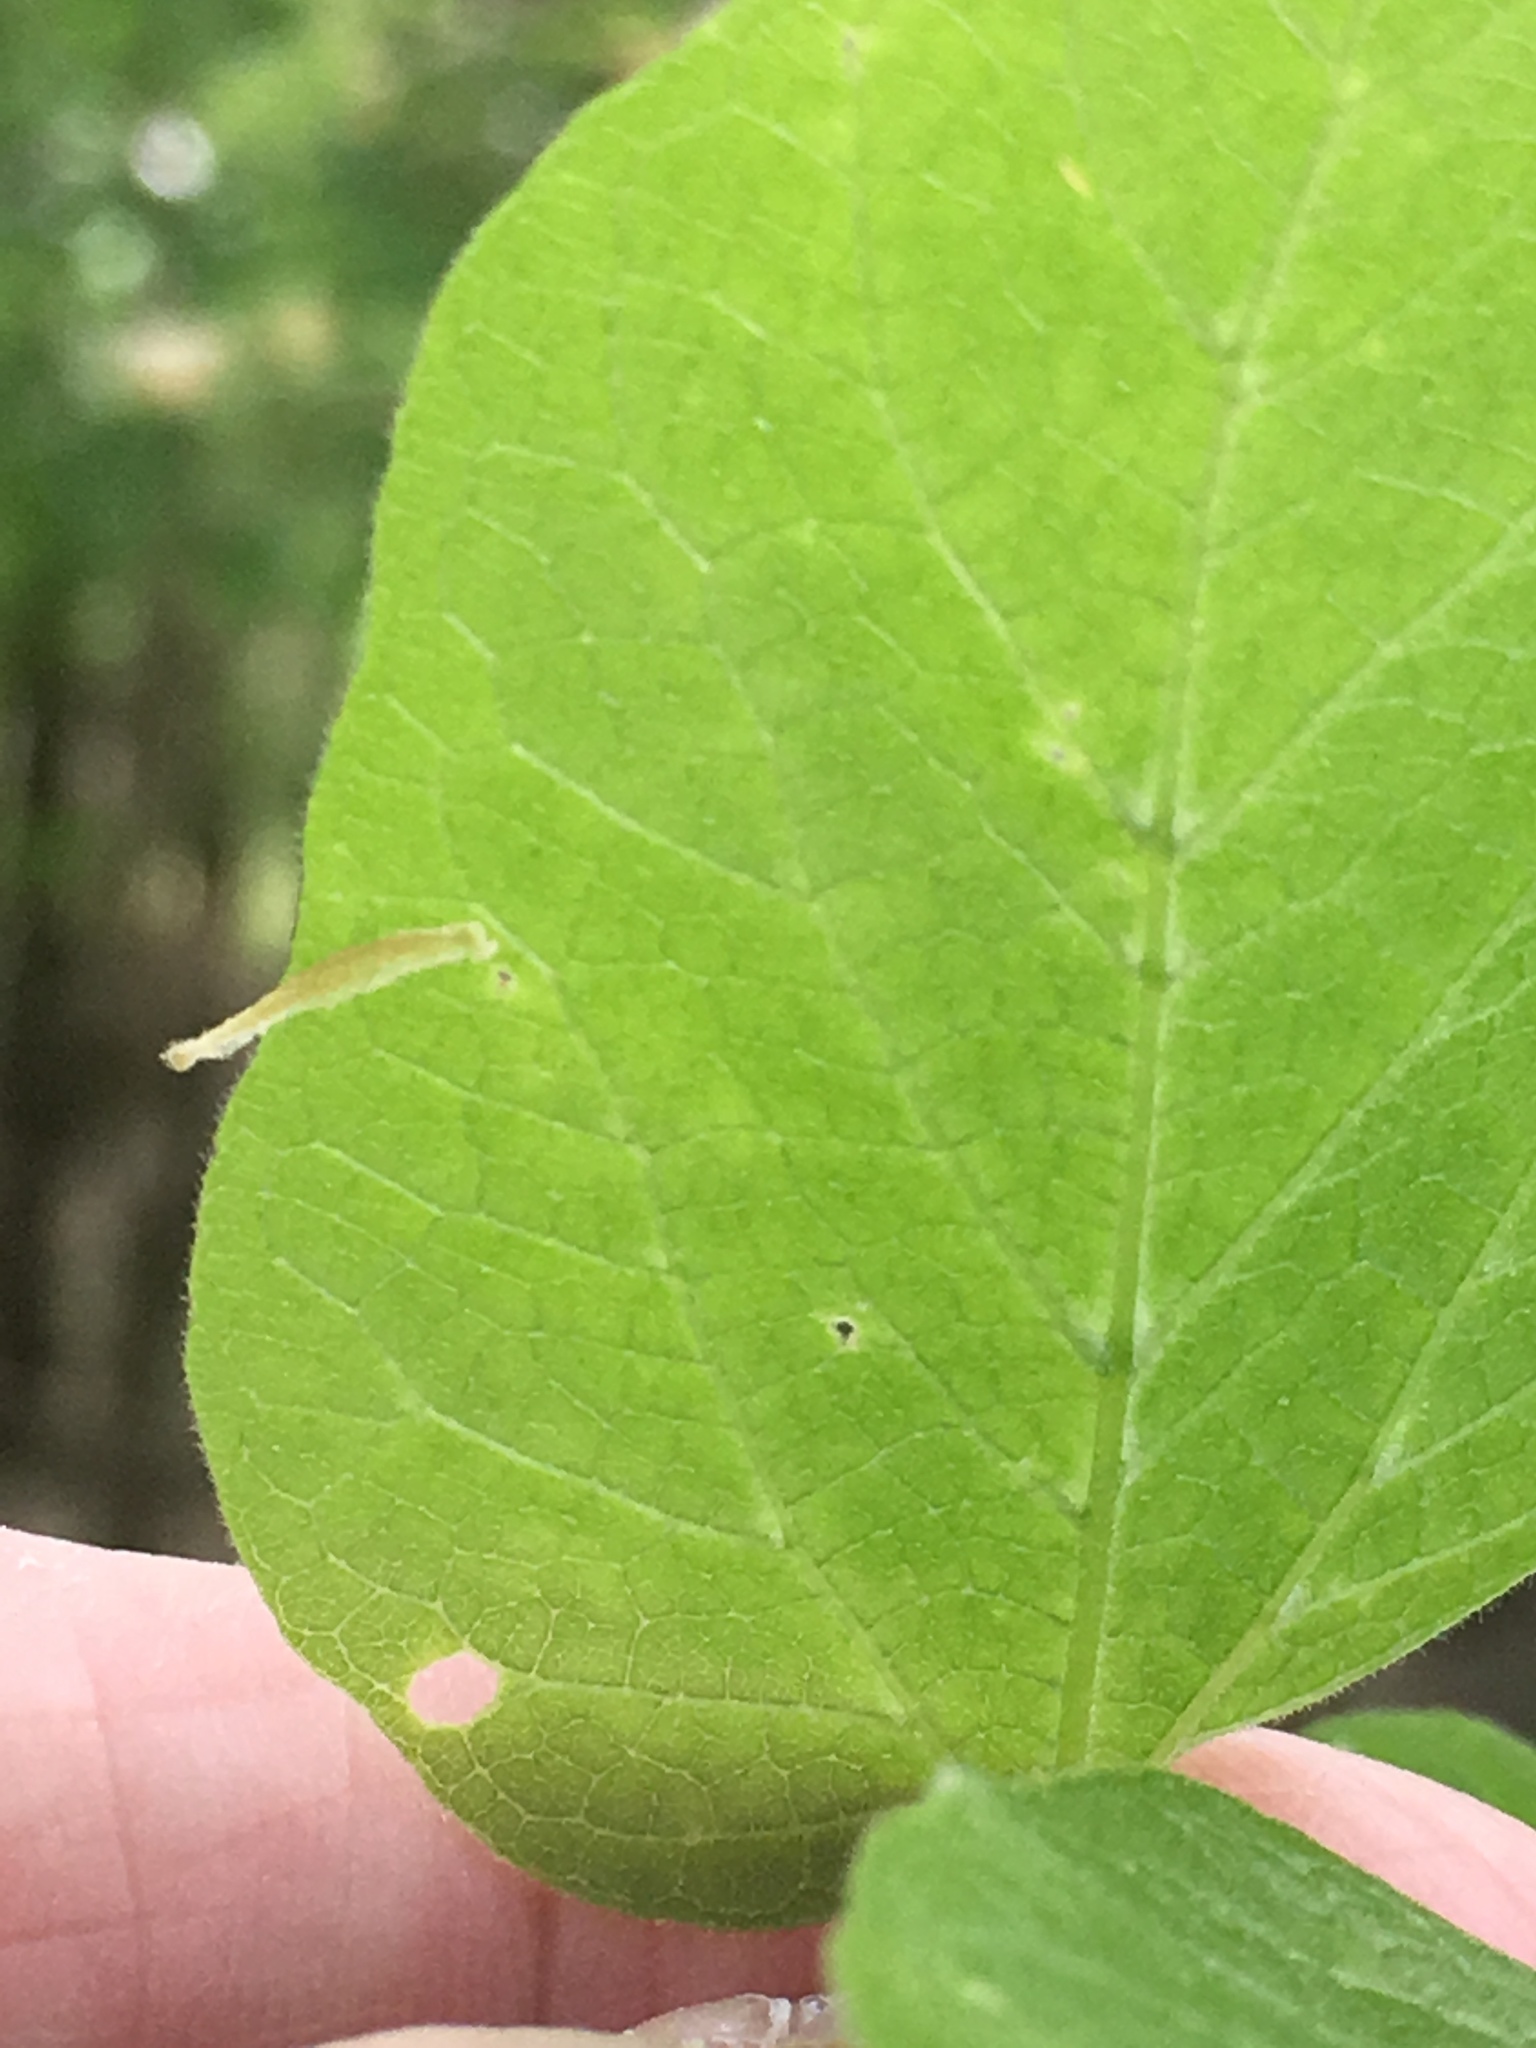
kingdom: Plantae
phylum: Tracheophyta
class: Magnoliopsida
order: Rosales
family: Cannabaceae
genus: Celtis
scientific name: Celtis laevigata
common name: Sugarberry
